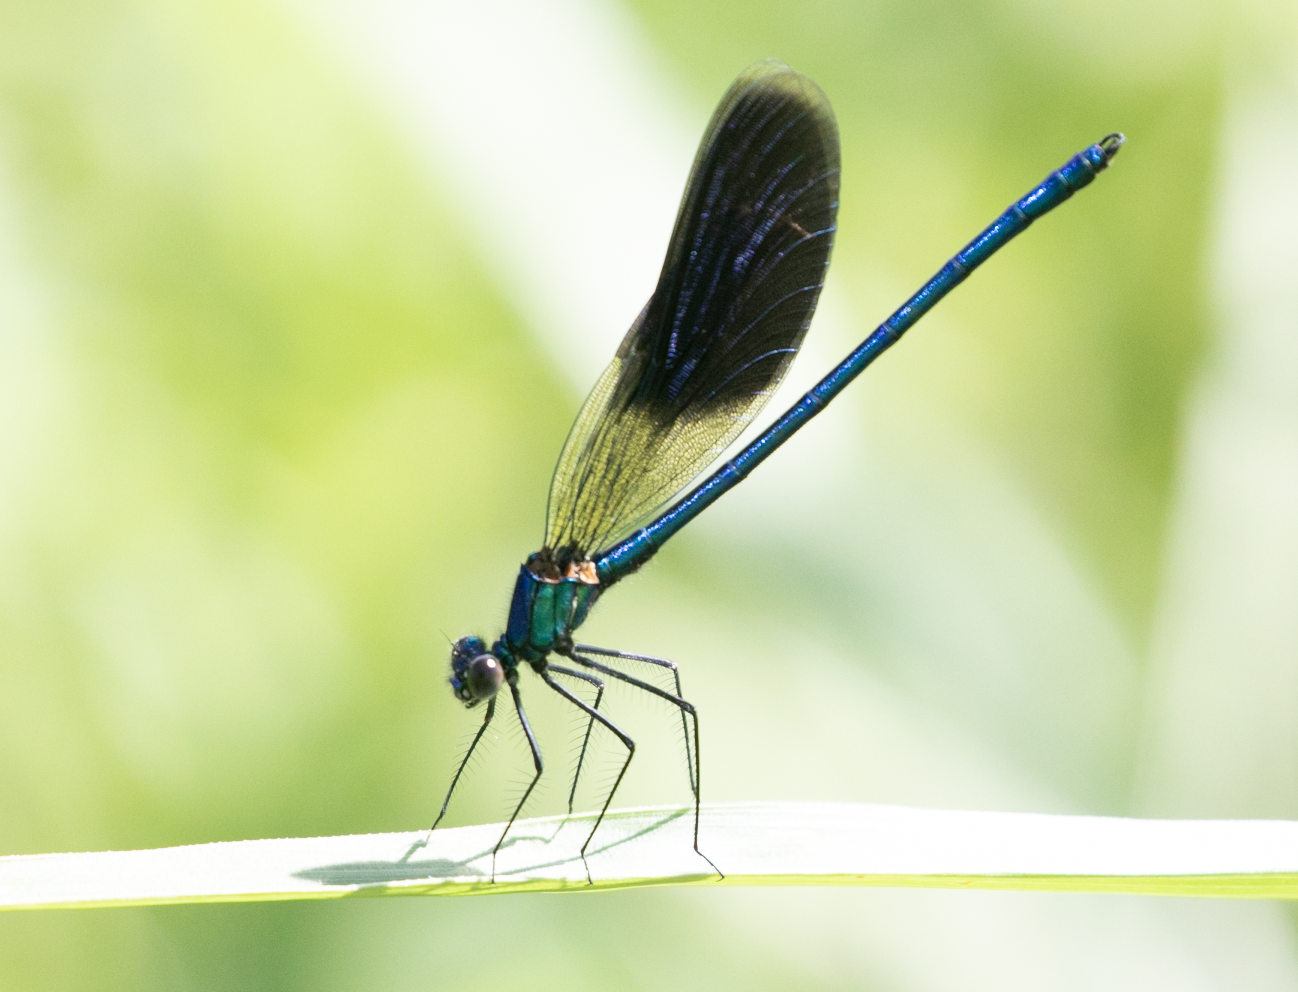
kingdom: Animalia
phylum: Arthropoda
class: Insecta
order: Odonata
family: Calopterygidae
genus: Calopteryx
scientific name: Calopteryx splendens
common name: Banded demoiselle
